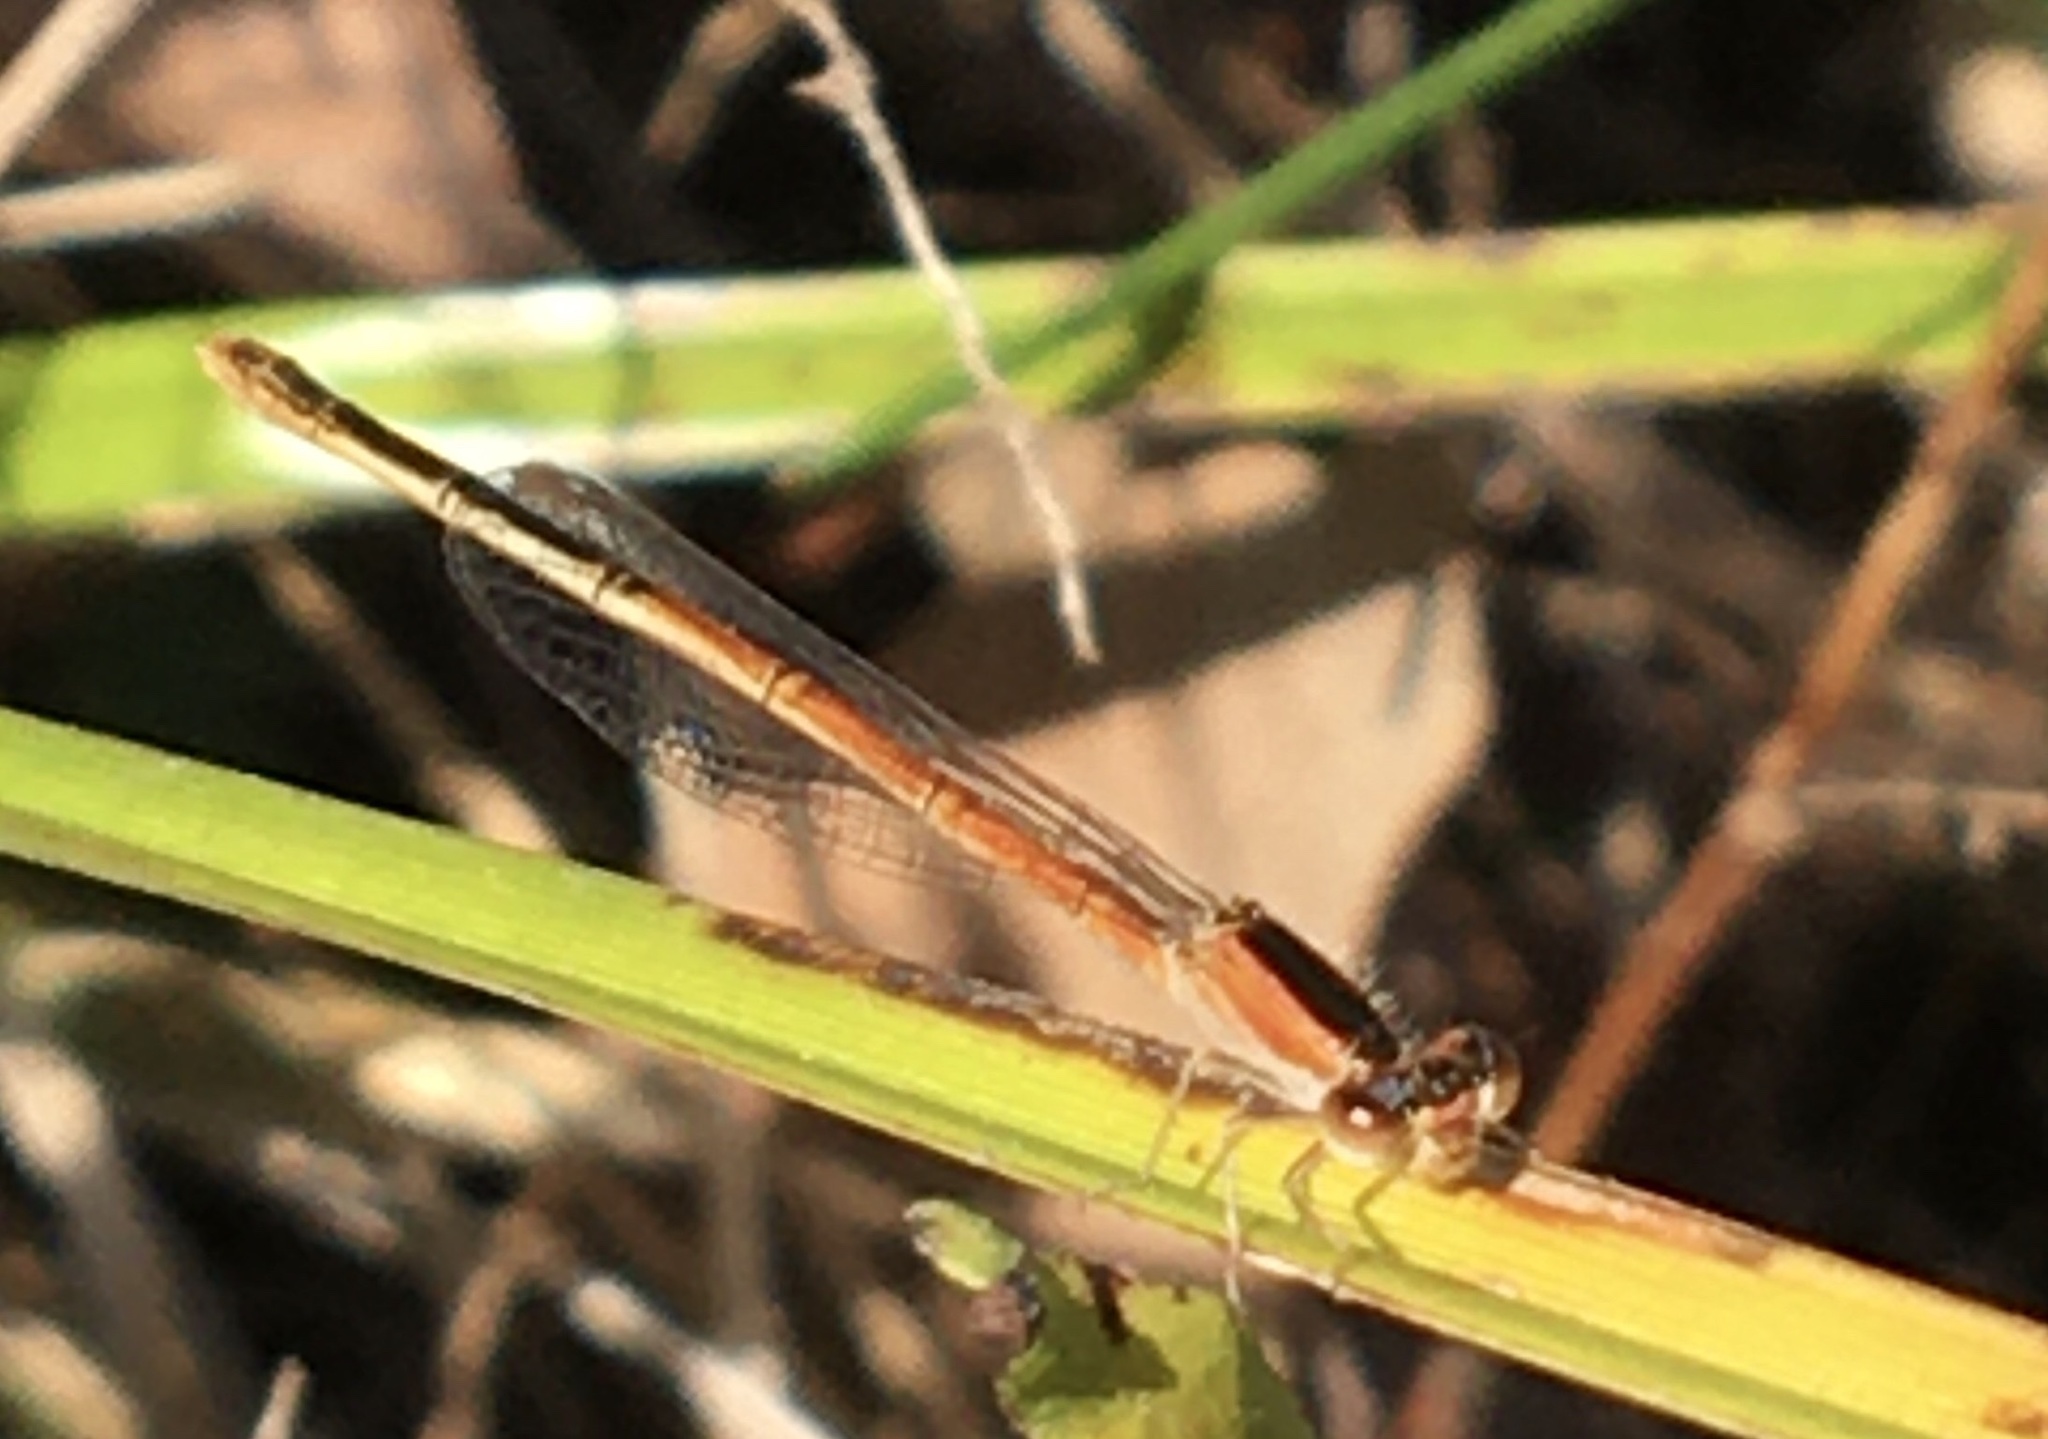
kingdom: Animalia
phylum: Arthropoda
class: Insecta
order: Odonata
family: Coenagrionidae
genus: Ischnura
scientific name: Ischnura hastata
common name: Citrine forktail
